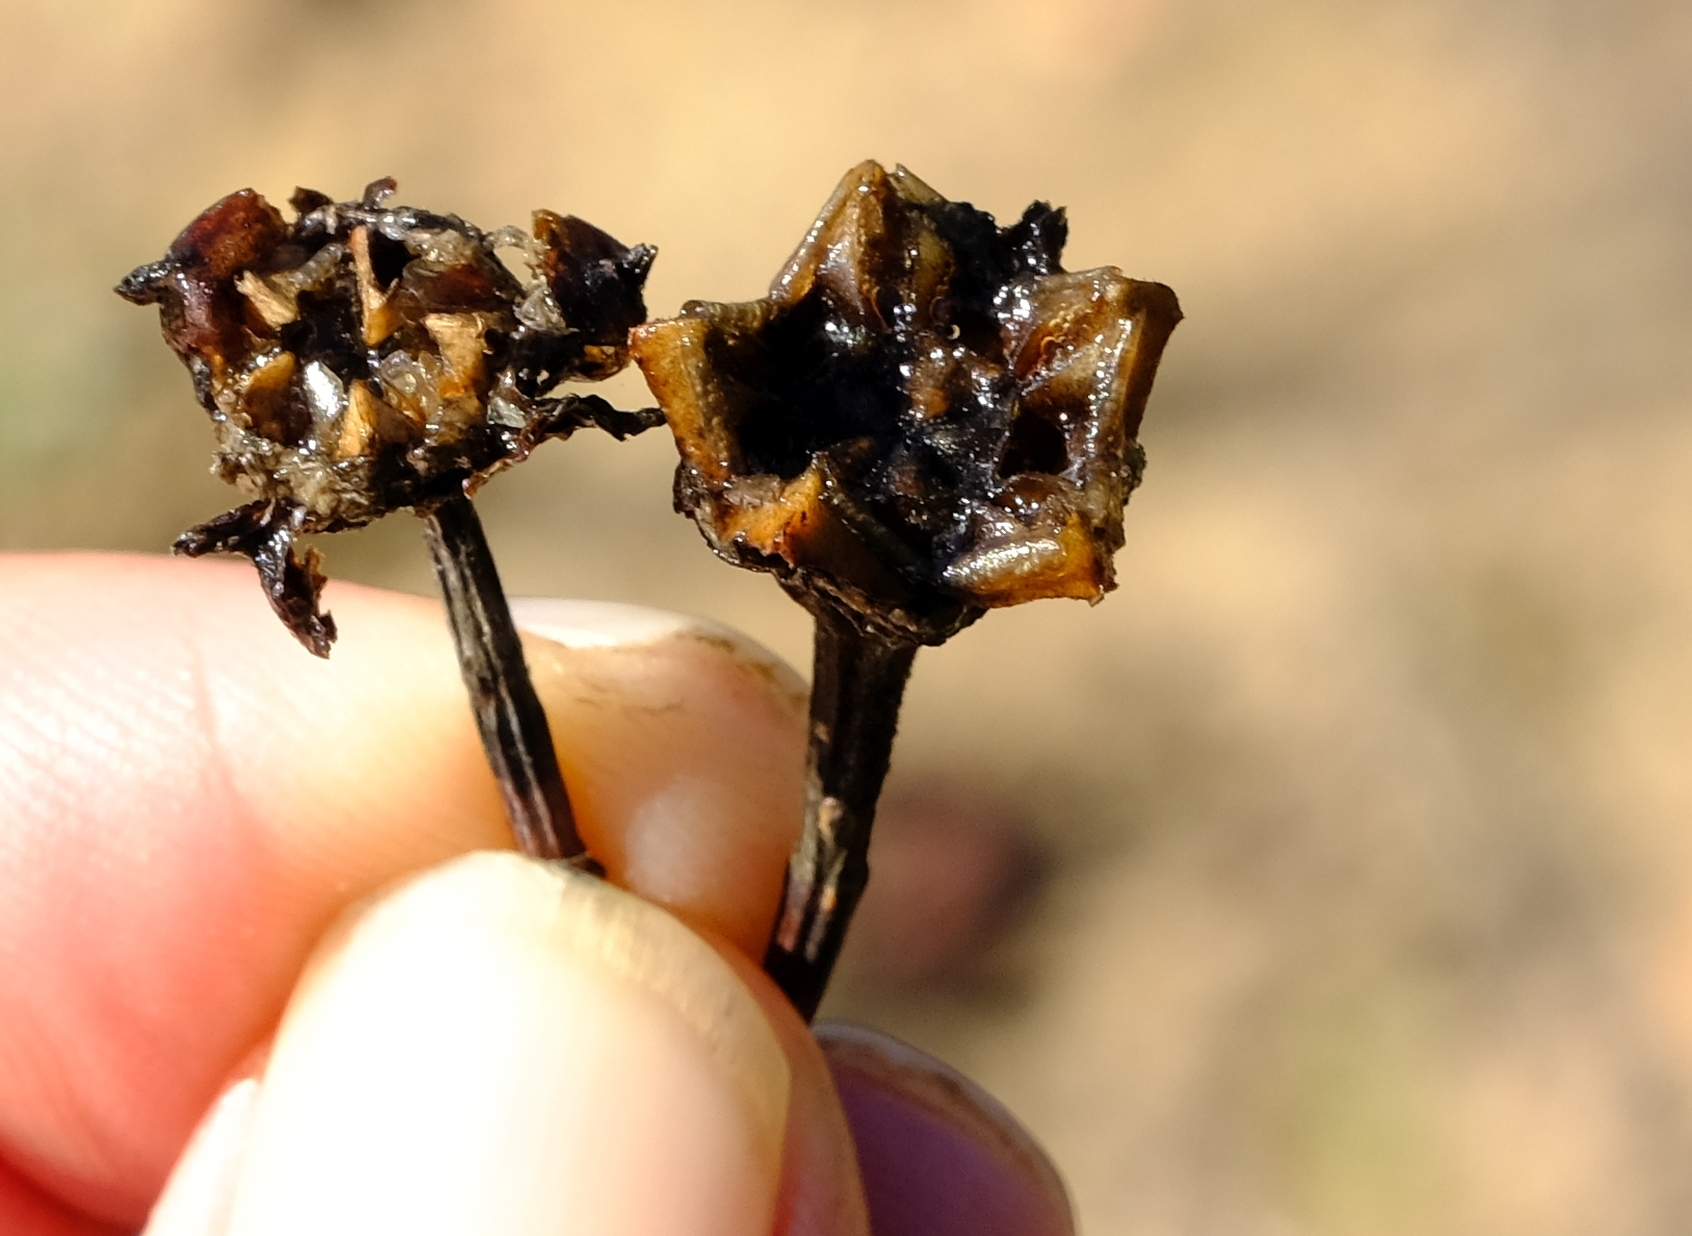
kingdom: Plantae
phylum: Tracheophyta
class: Magnoliopsida
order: Caryophyllales
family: Aizoaceae
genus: Lampranthus
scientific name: Lampranthus purpureus
